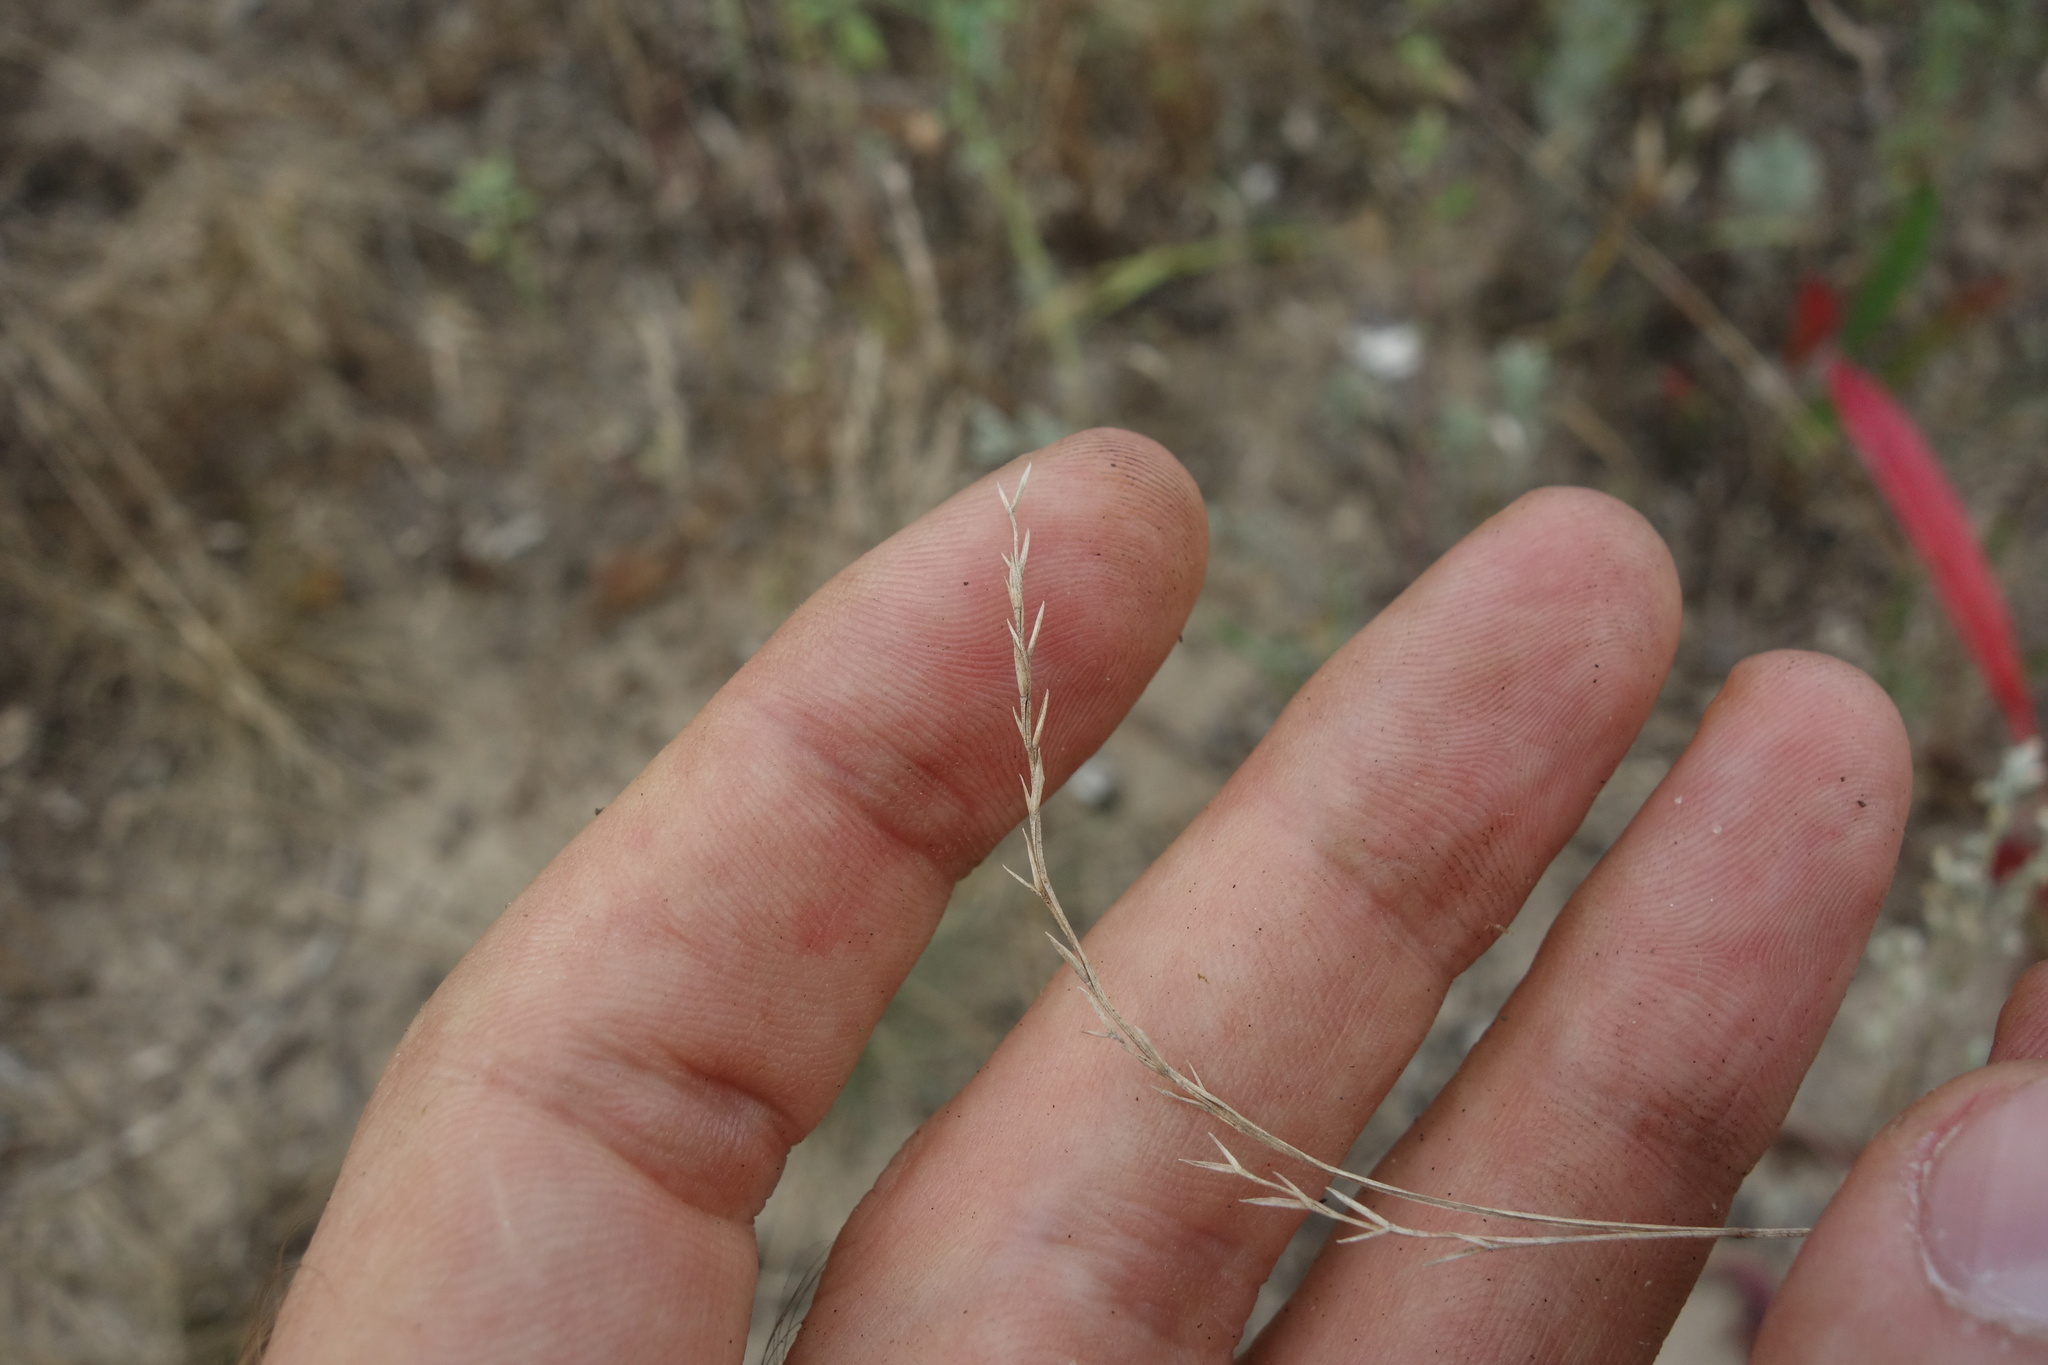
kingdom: Plantae
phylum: Tracheophyta
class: Liliopsida
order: Poales
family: Poaceae
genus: Festuca
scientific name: Festuca valesiaca
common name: Volga fescue
